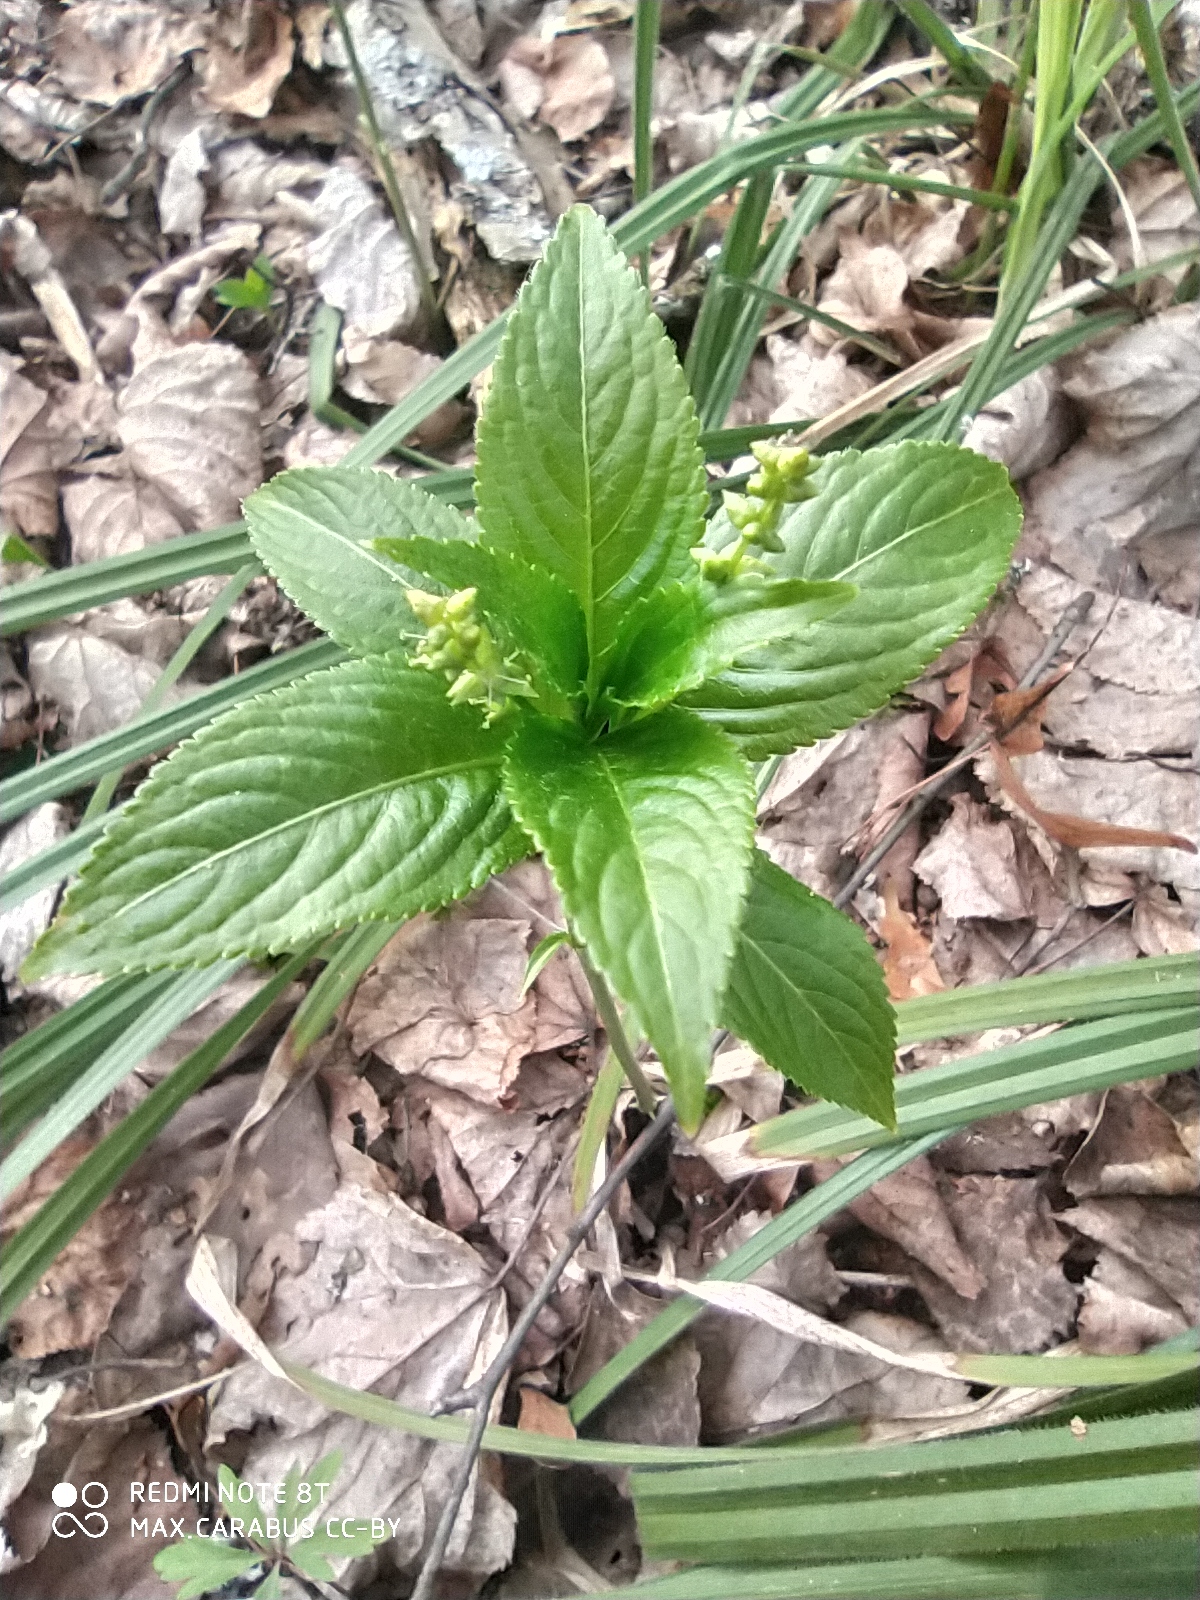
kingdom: Plantae
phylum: Tracheophyta
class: Magnoliopsida
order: Malpighiales
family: Euphorbiaceae
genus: Mercurialis
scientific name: Mercurialis perennis
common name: Dog mercury
